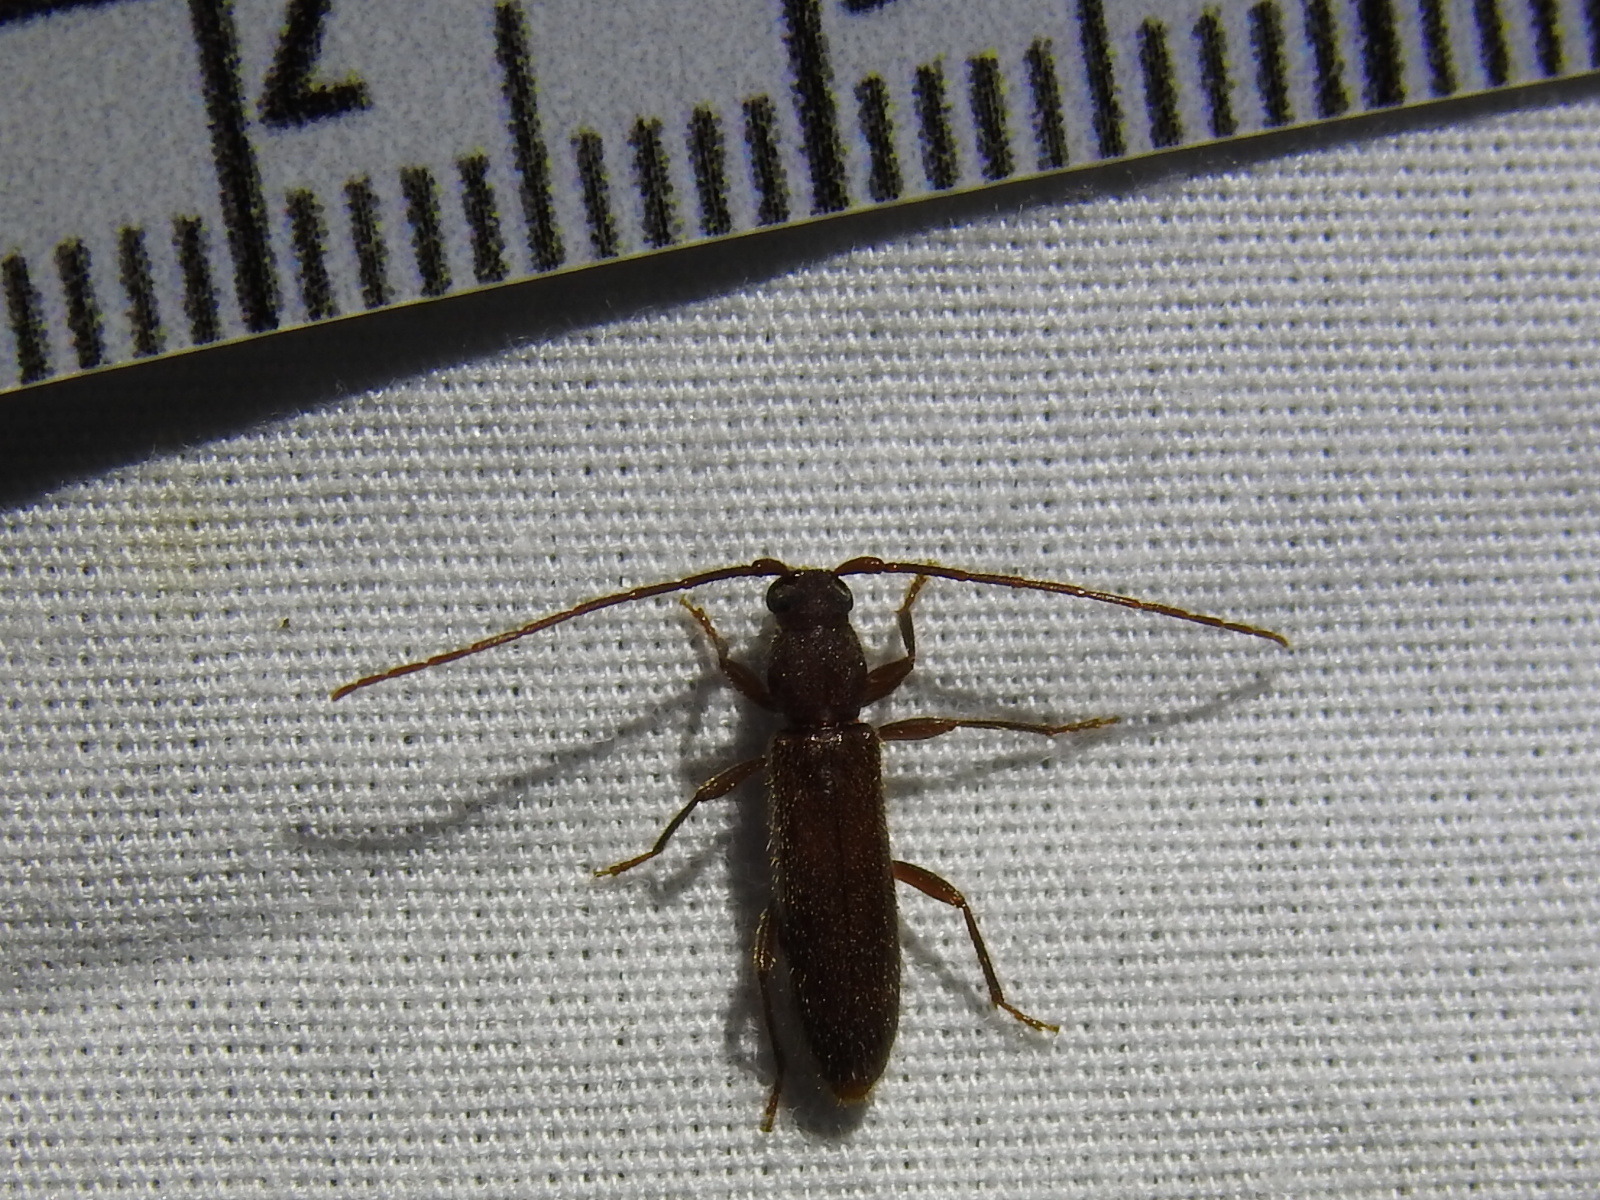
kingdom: Animalia
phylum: Arthropoda
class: Insecta
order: Coleoptera
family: Cerambycidae
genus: Geropa
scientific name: Geropa concolor
